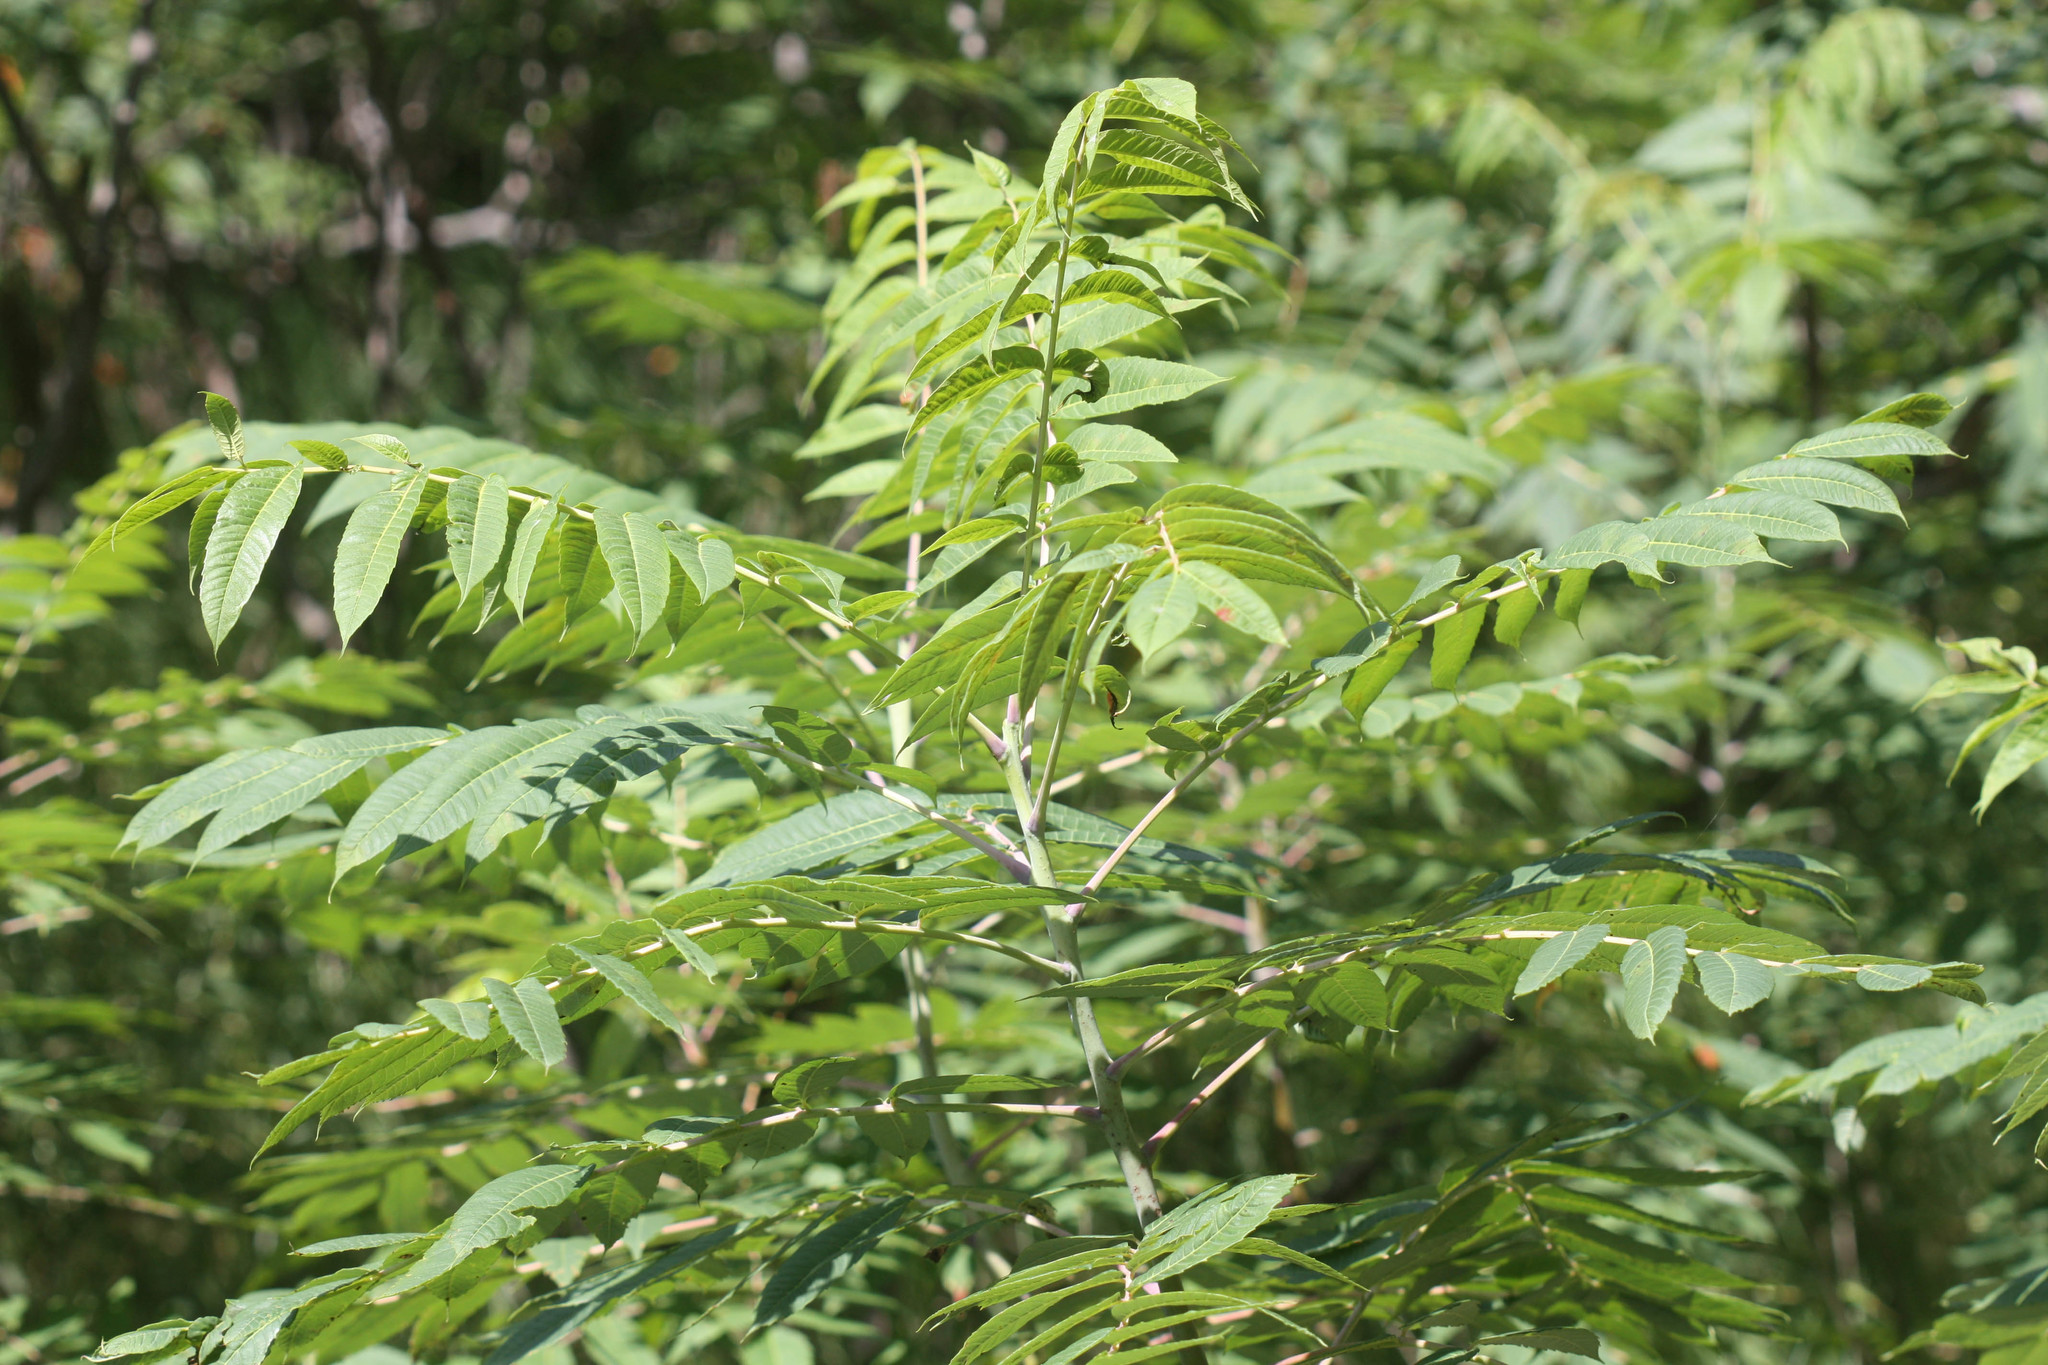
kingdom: Plantae
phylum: Tracheophyta
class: Magnoliopsida
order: Sapindales
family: Anacardiaceae
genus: Rhus
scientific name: Rhus glabra
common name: Scarlet sumac
